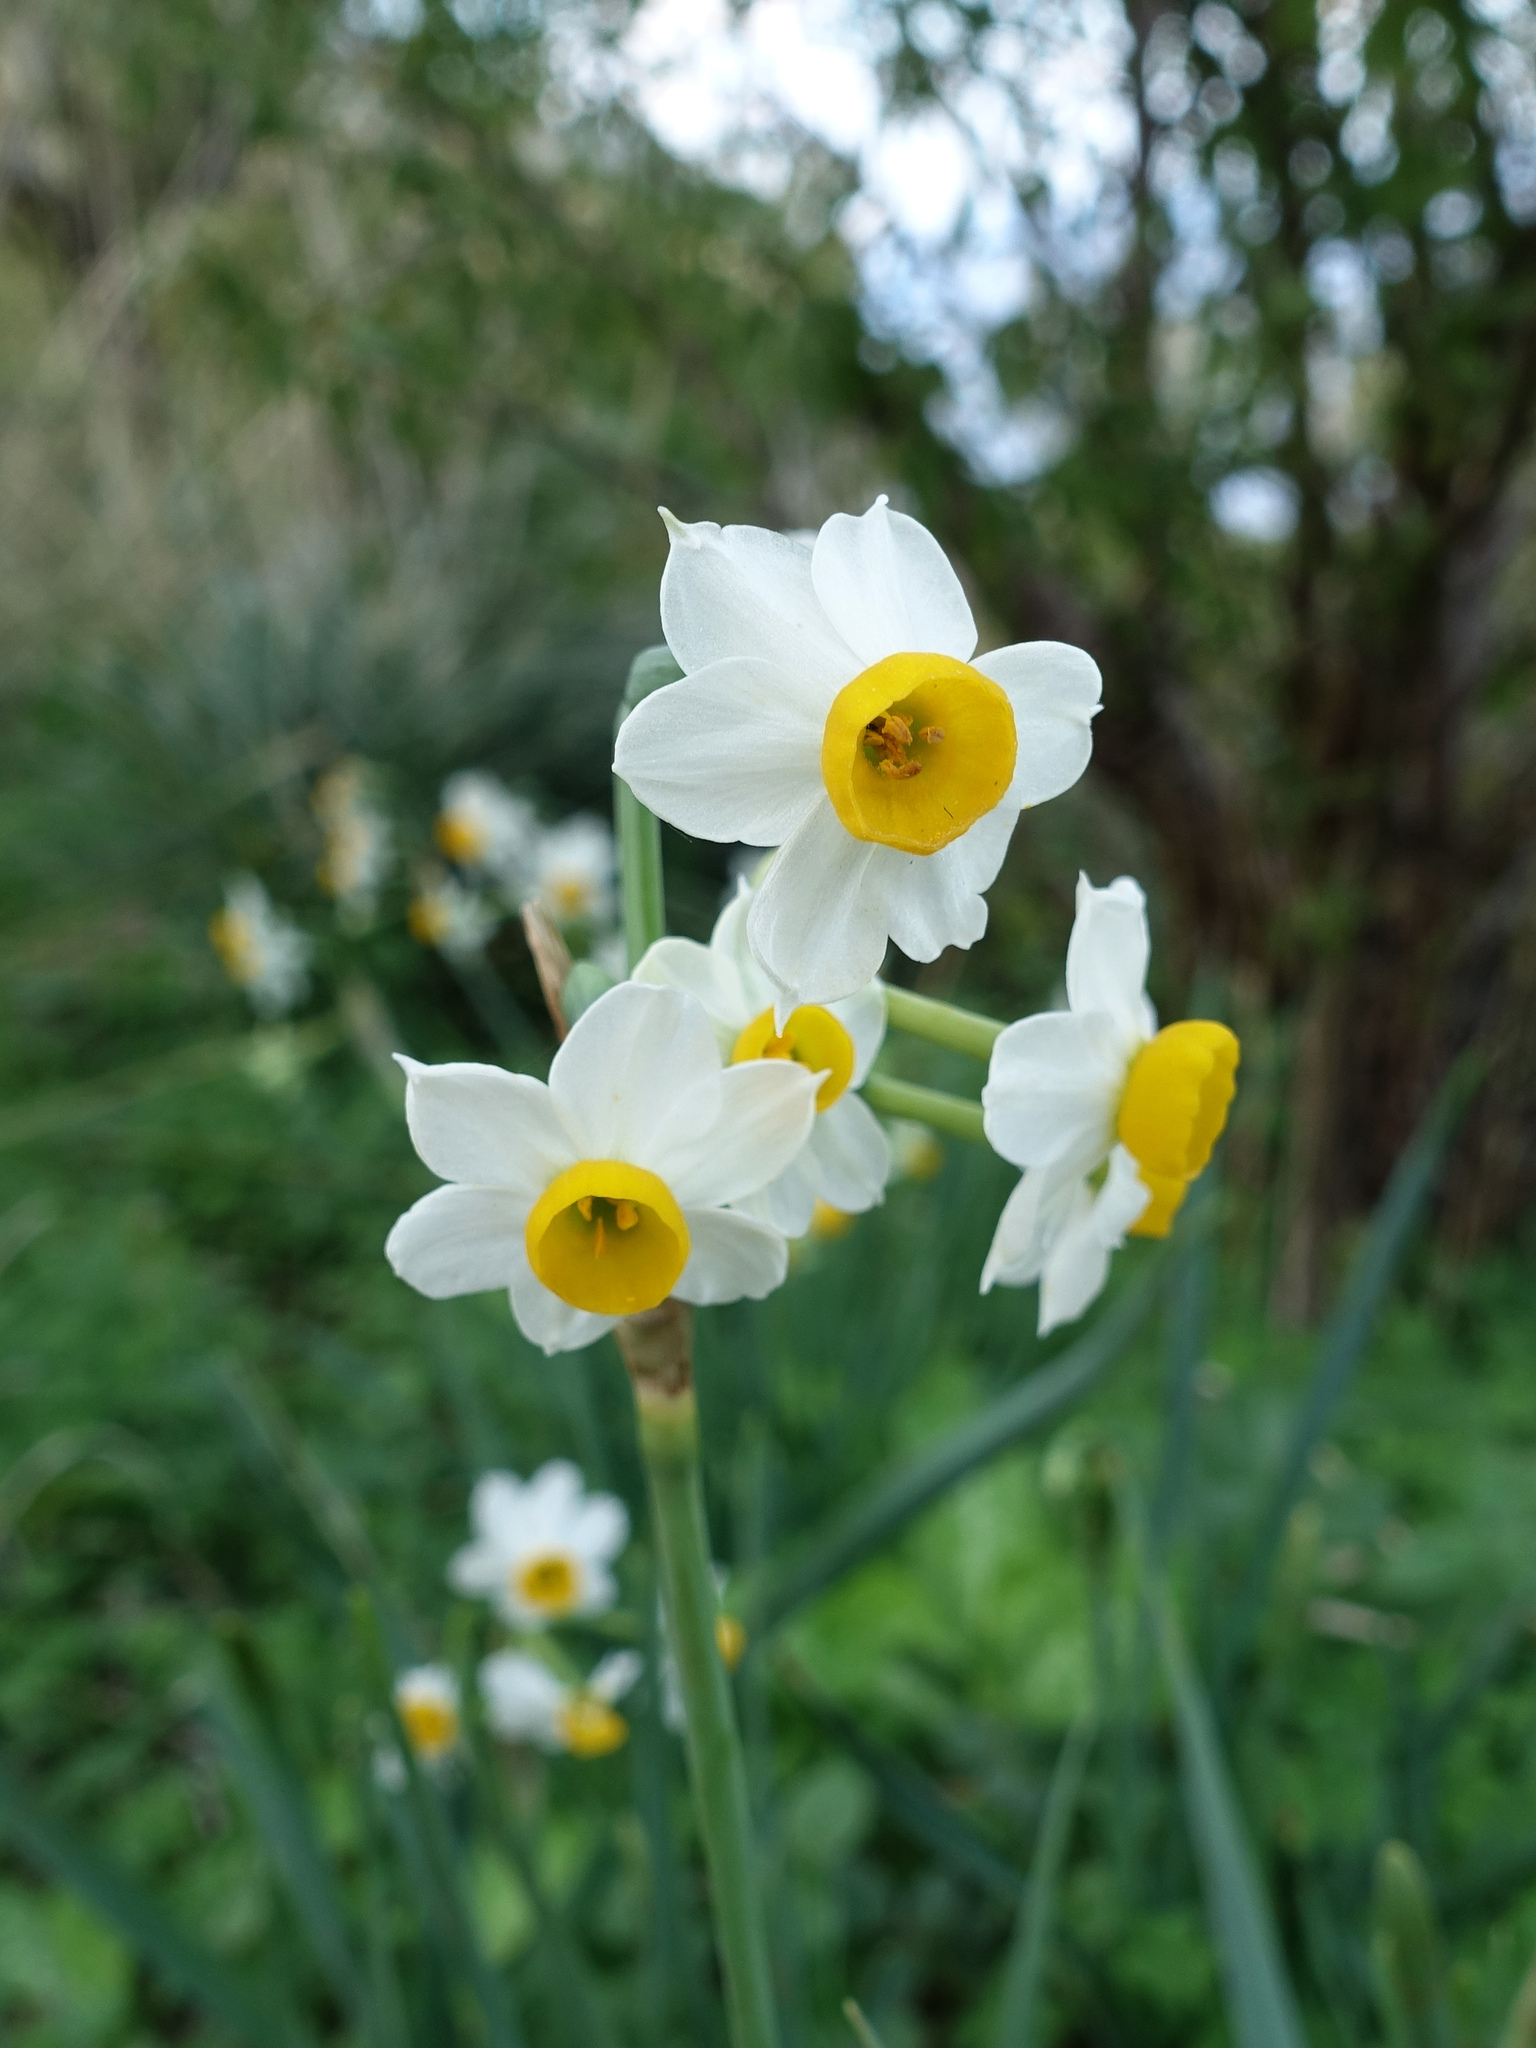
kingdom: Plantae
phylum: Tracheophyta
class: Liliopsida
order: Asparagales
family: Amaryllidaceae
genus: Narcissus
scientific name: Narcissus tazetta
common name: Bunch-flowered daffodil
